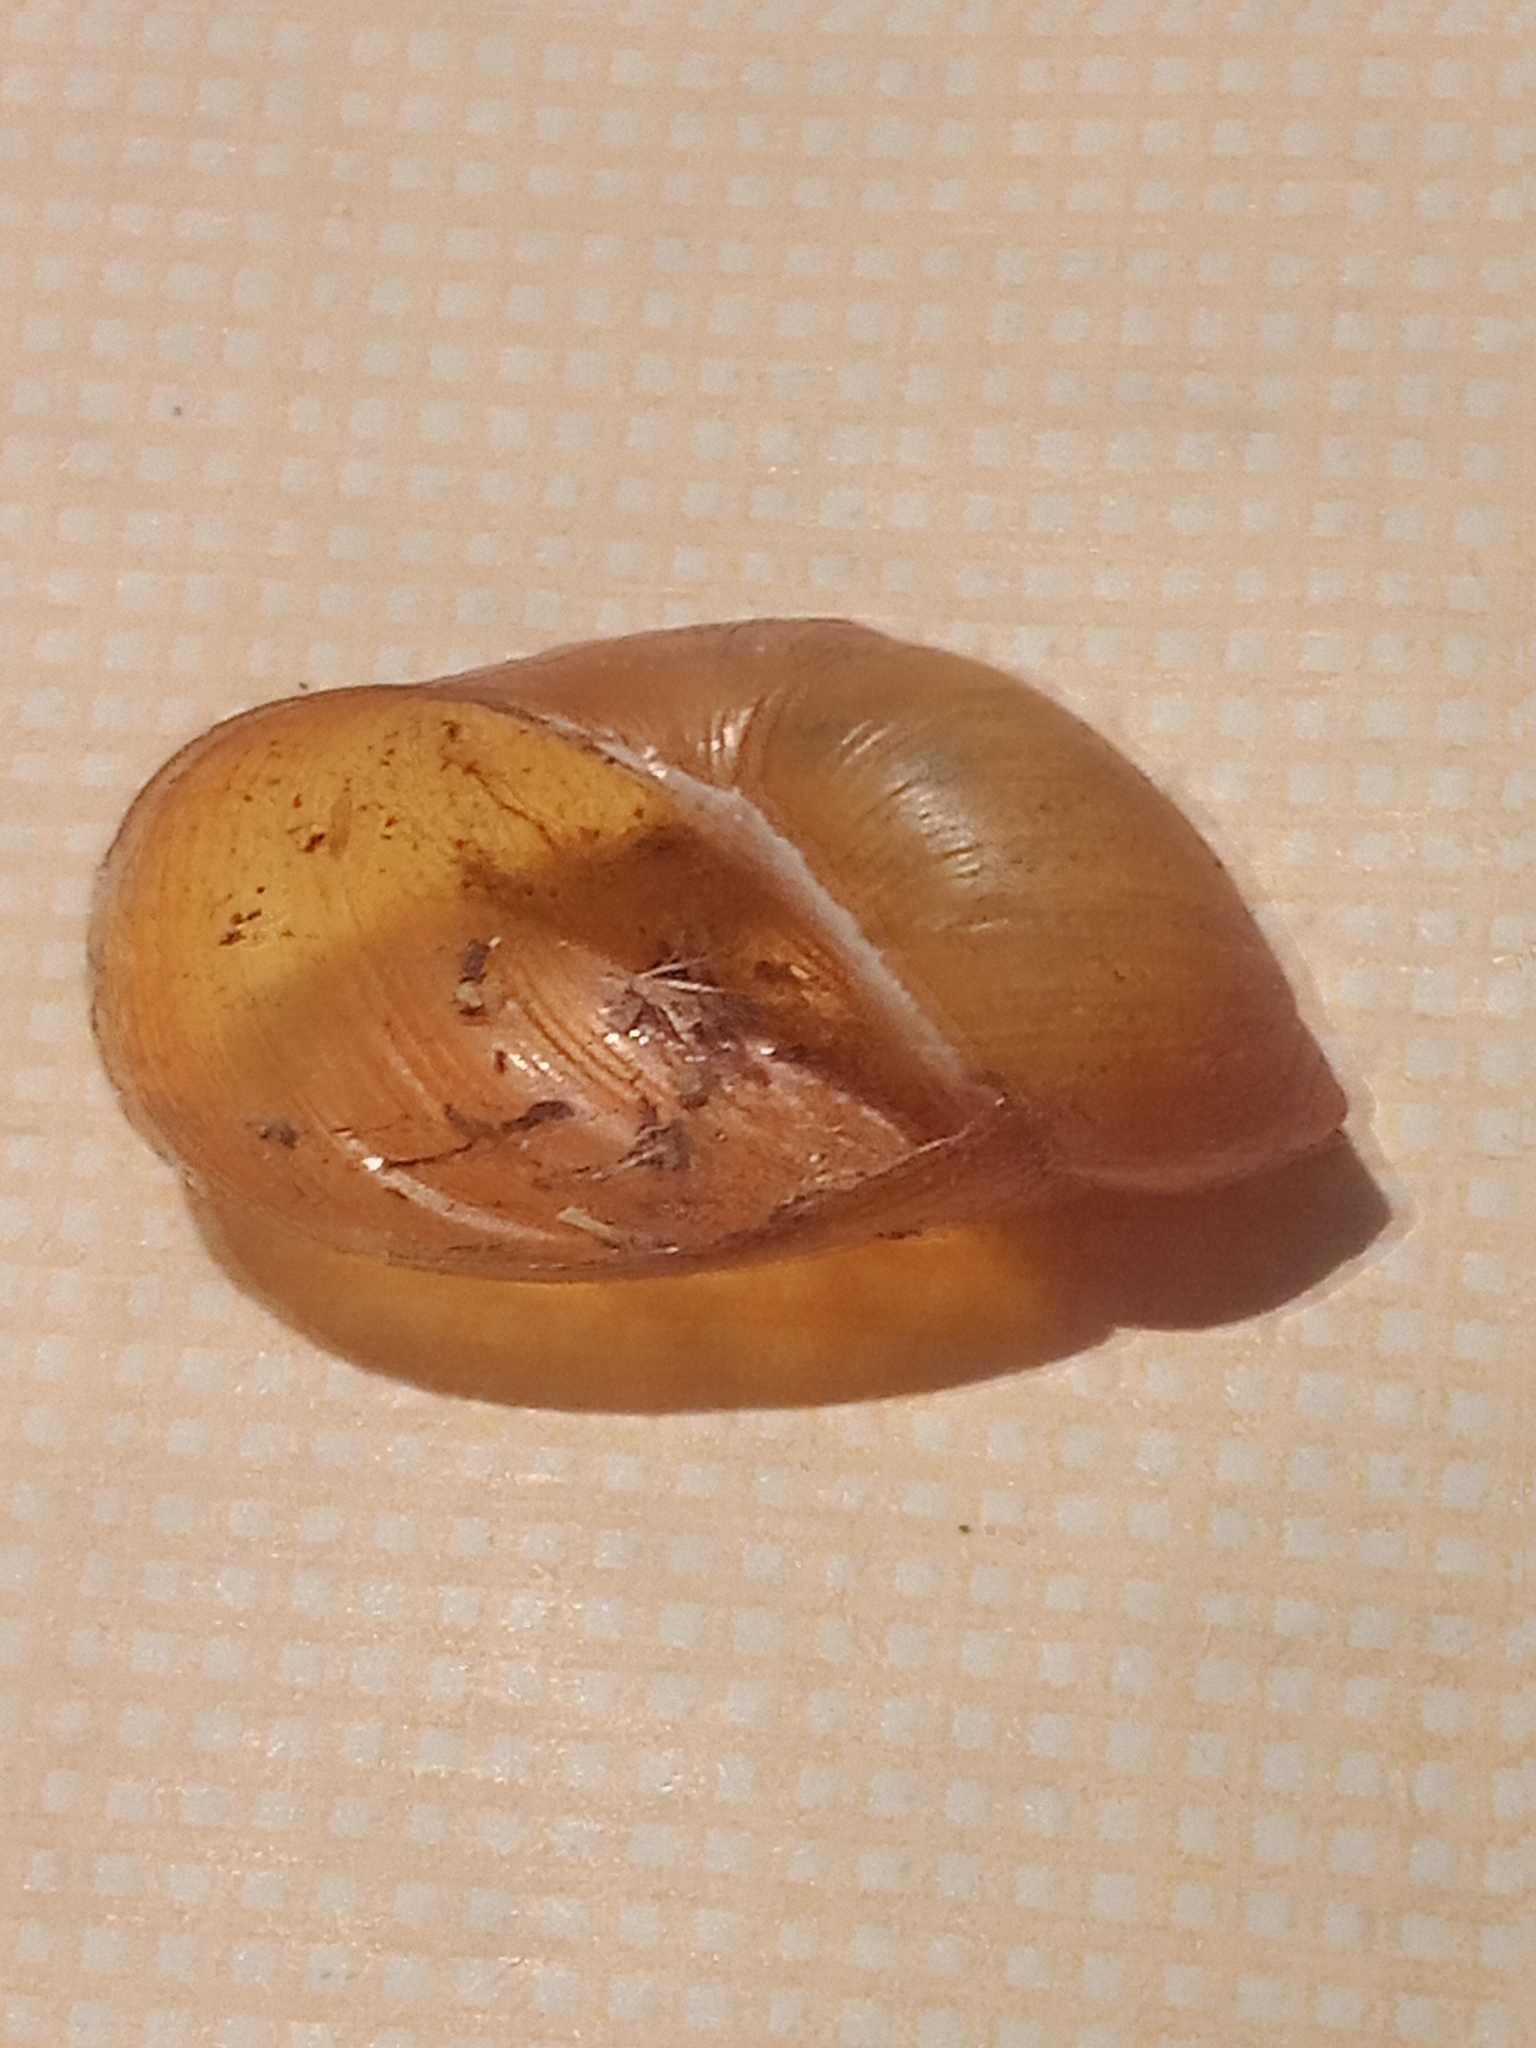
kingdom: Animalia
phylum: Mollusca
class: Gastropoda
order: Stylommatophora
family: Succineidae
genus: Succinea
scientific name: Succinea putris
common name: European ambersnail
